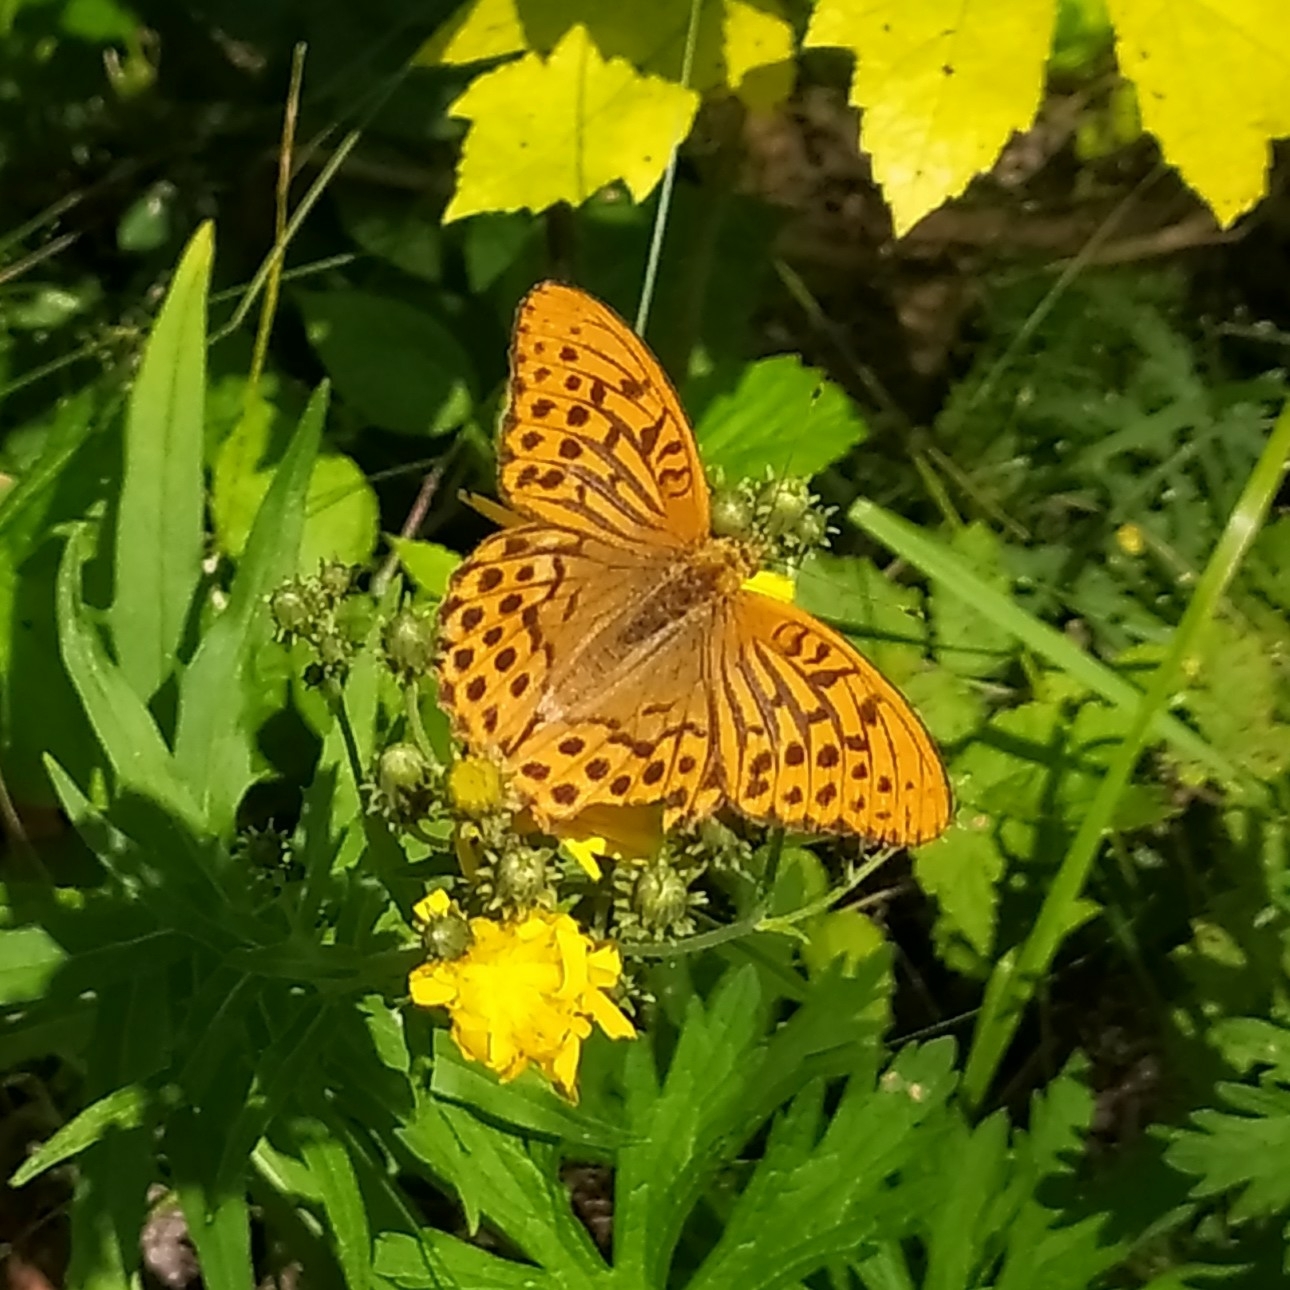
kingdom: Animalia
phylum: Arthropoda
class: Insecta
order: Lepidoptera
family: Nymphalidae
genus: Argynnis
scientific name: Argynnis paphia
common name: Silver-washed fritillary
